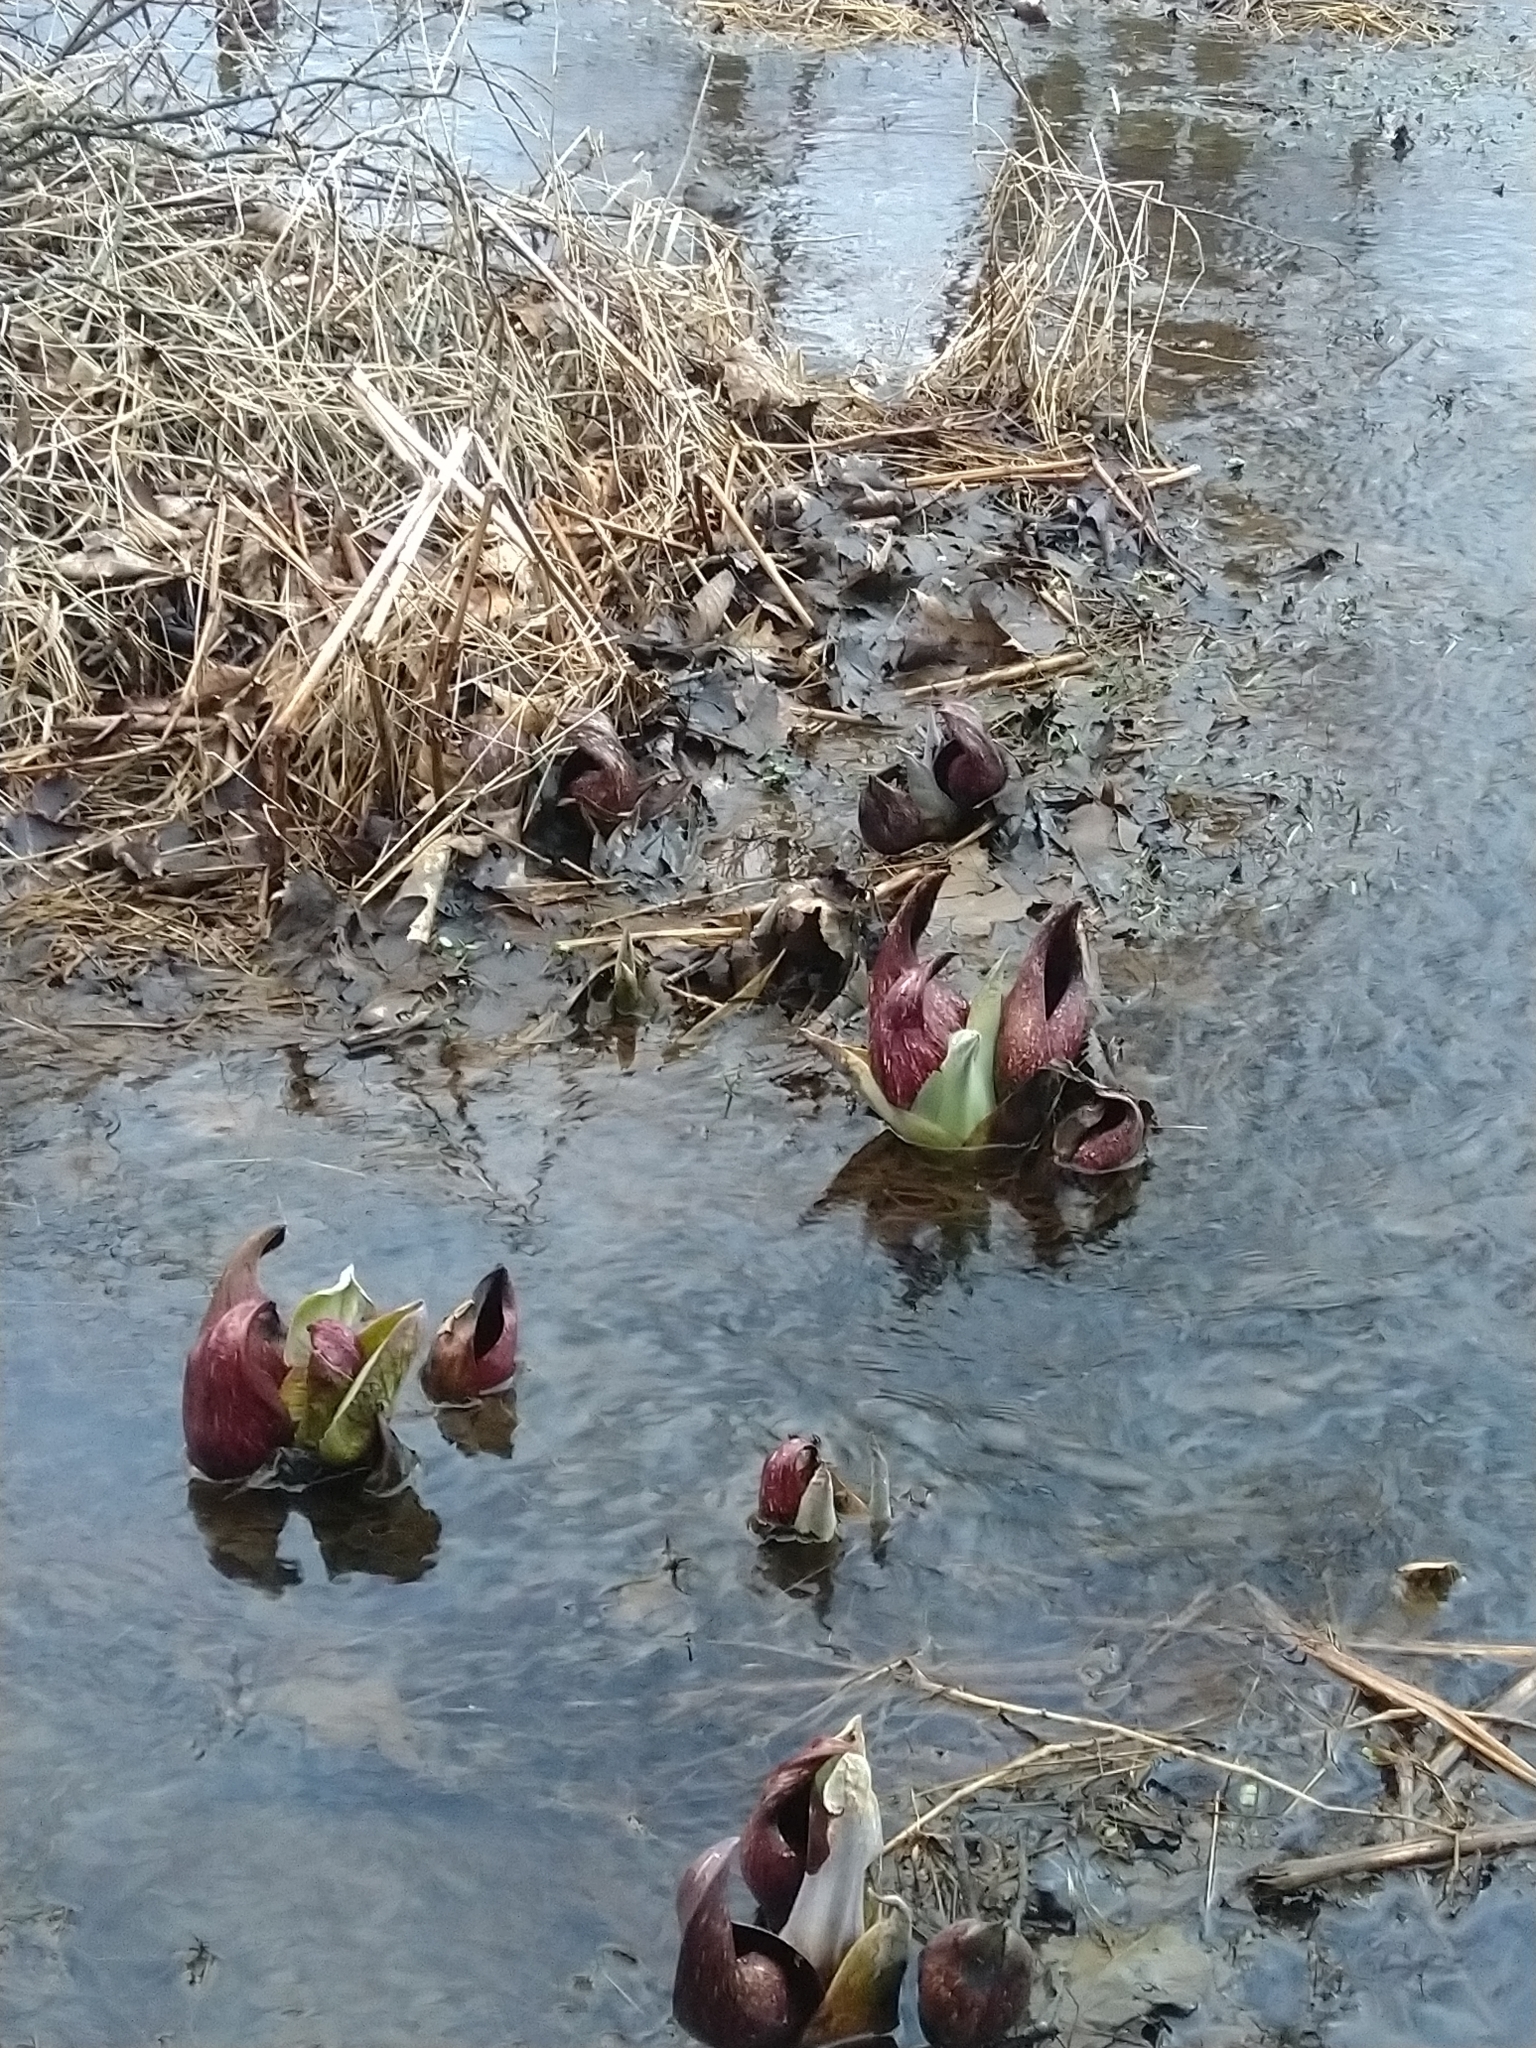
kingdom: Plantae
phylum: Tracheophyta
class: Liliopsida
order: Alismatales
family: Araceae
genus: Symplocarpus
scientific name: Symplocarpus foetidus
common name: Eastern skunk cabbage
